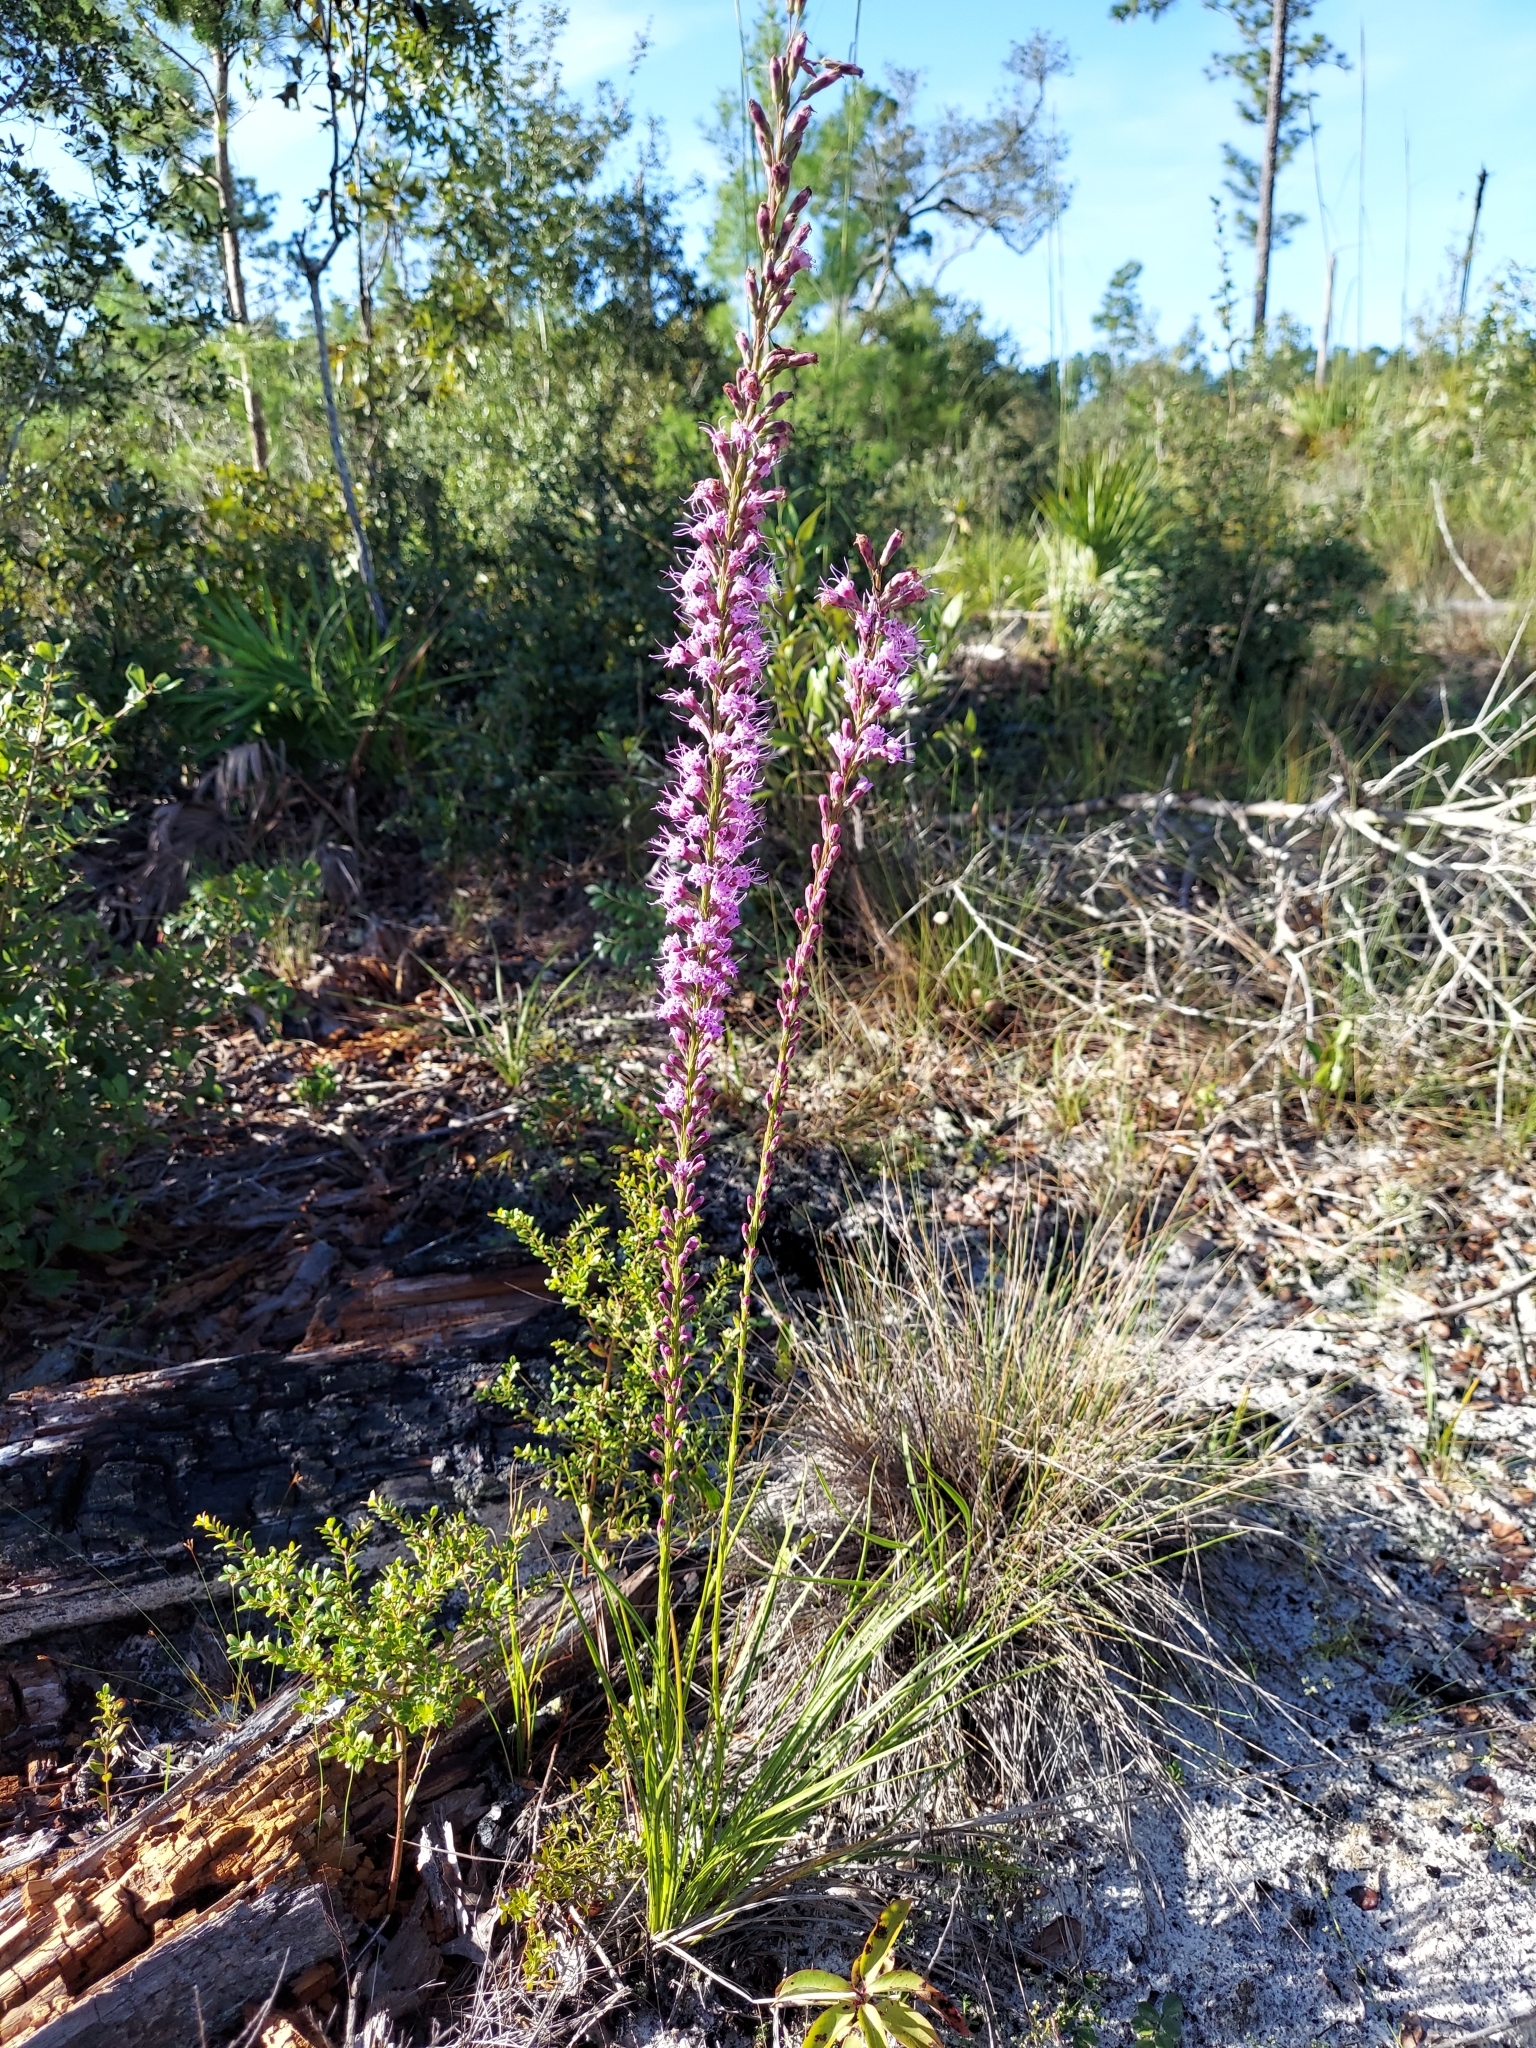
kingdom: Plantae
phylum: Tracheophyta
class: Magnoliopsida
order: Asterales
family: Asteraceae
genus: Liatris
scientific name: Liatris laevigata
